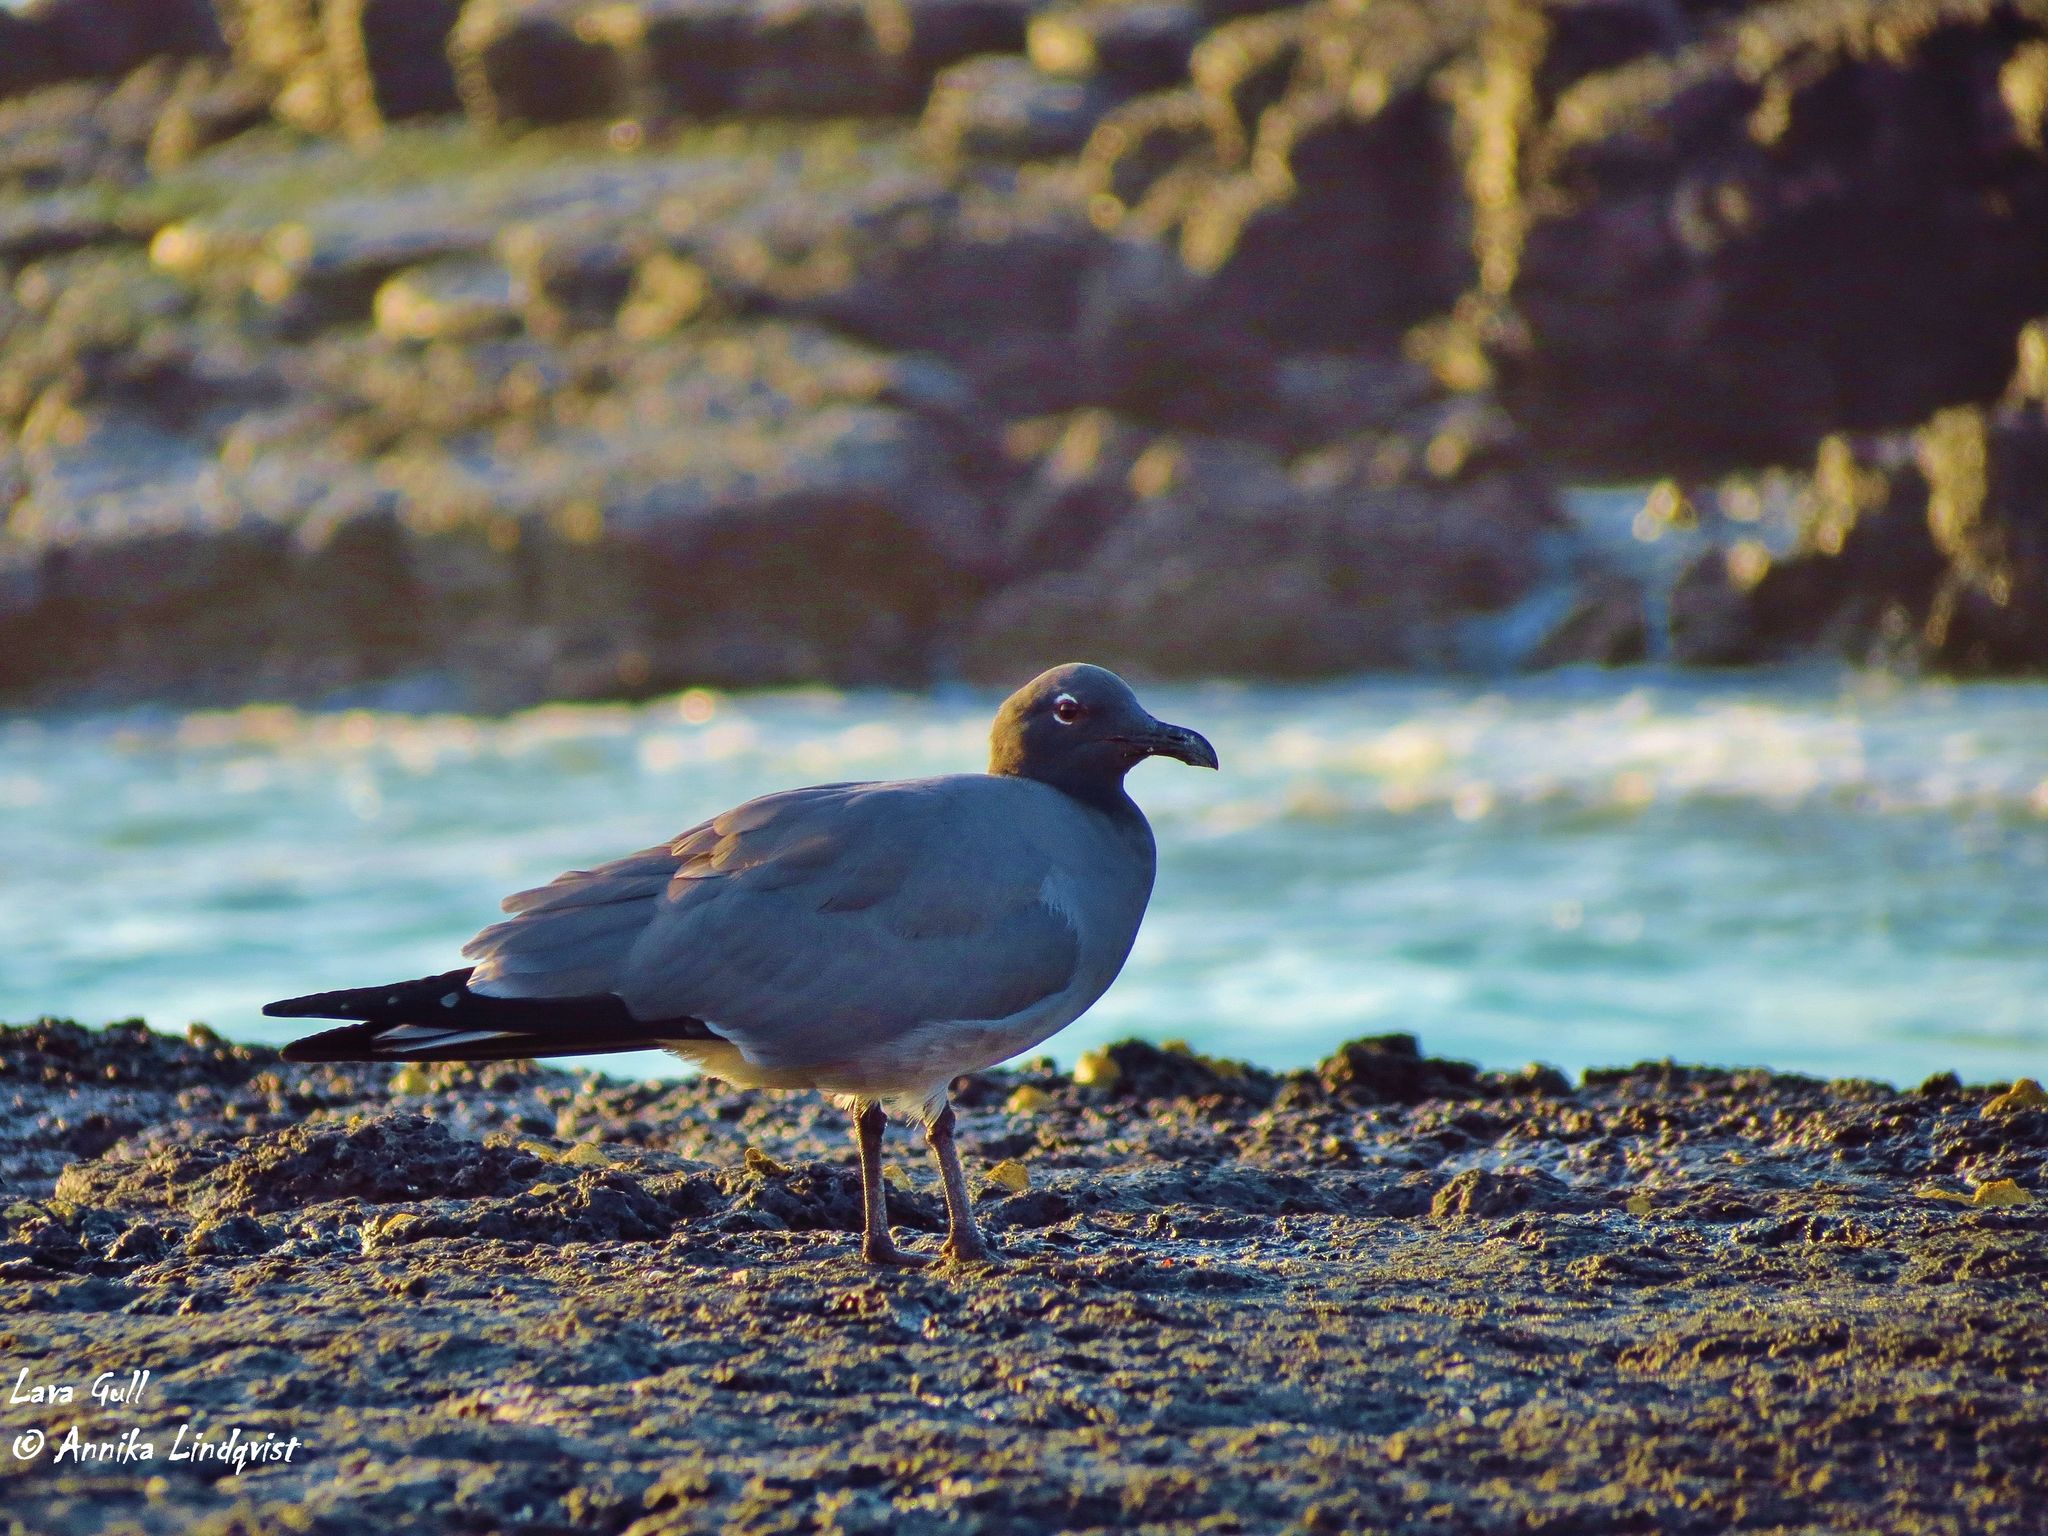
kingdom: Animalia
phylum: Chordata
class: Aves
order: Charadriiformes
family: Laridae
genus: Leucophaeus
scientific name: Leucophaeus fuliginosus
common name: Lava gull
